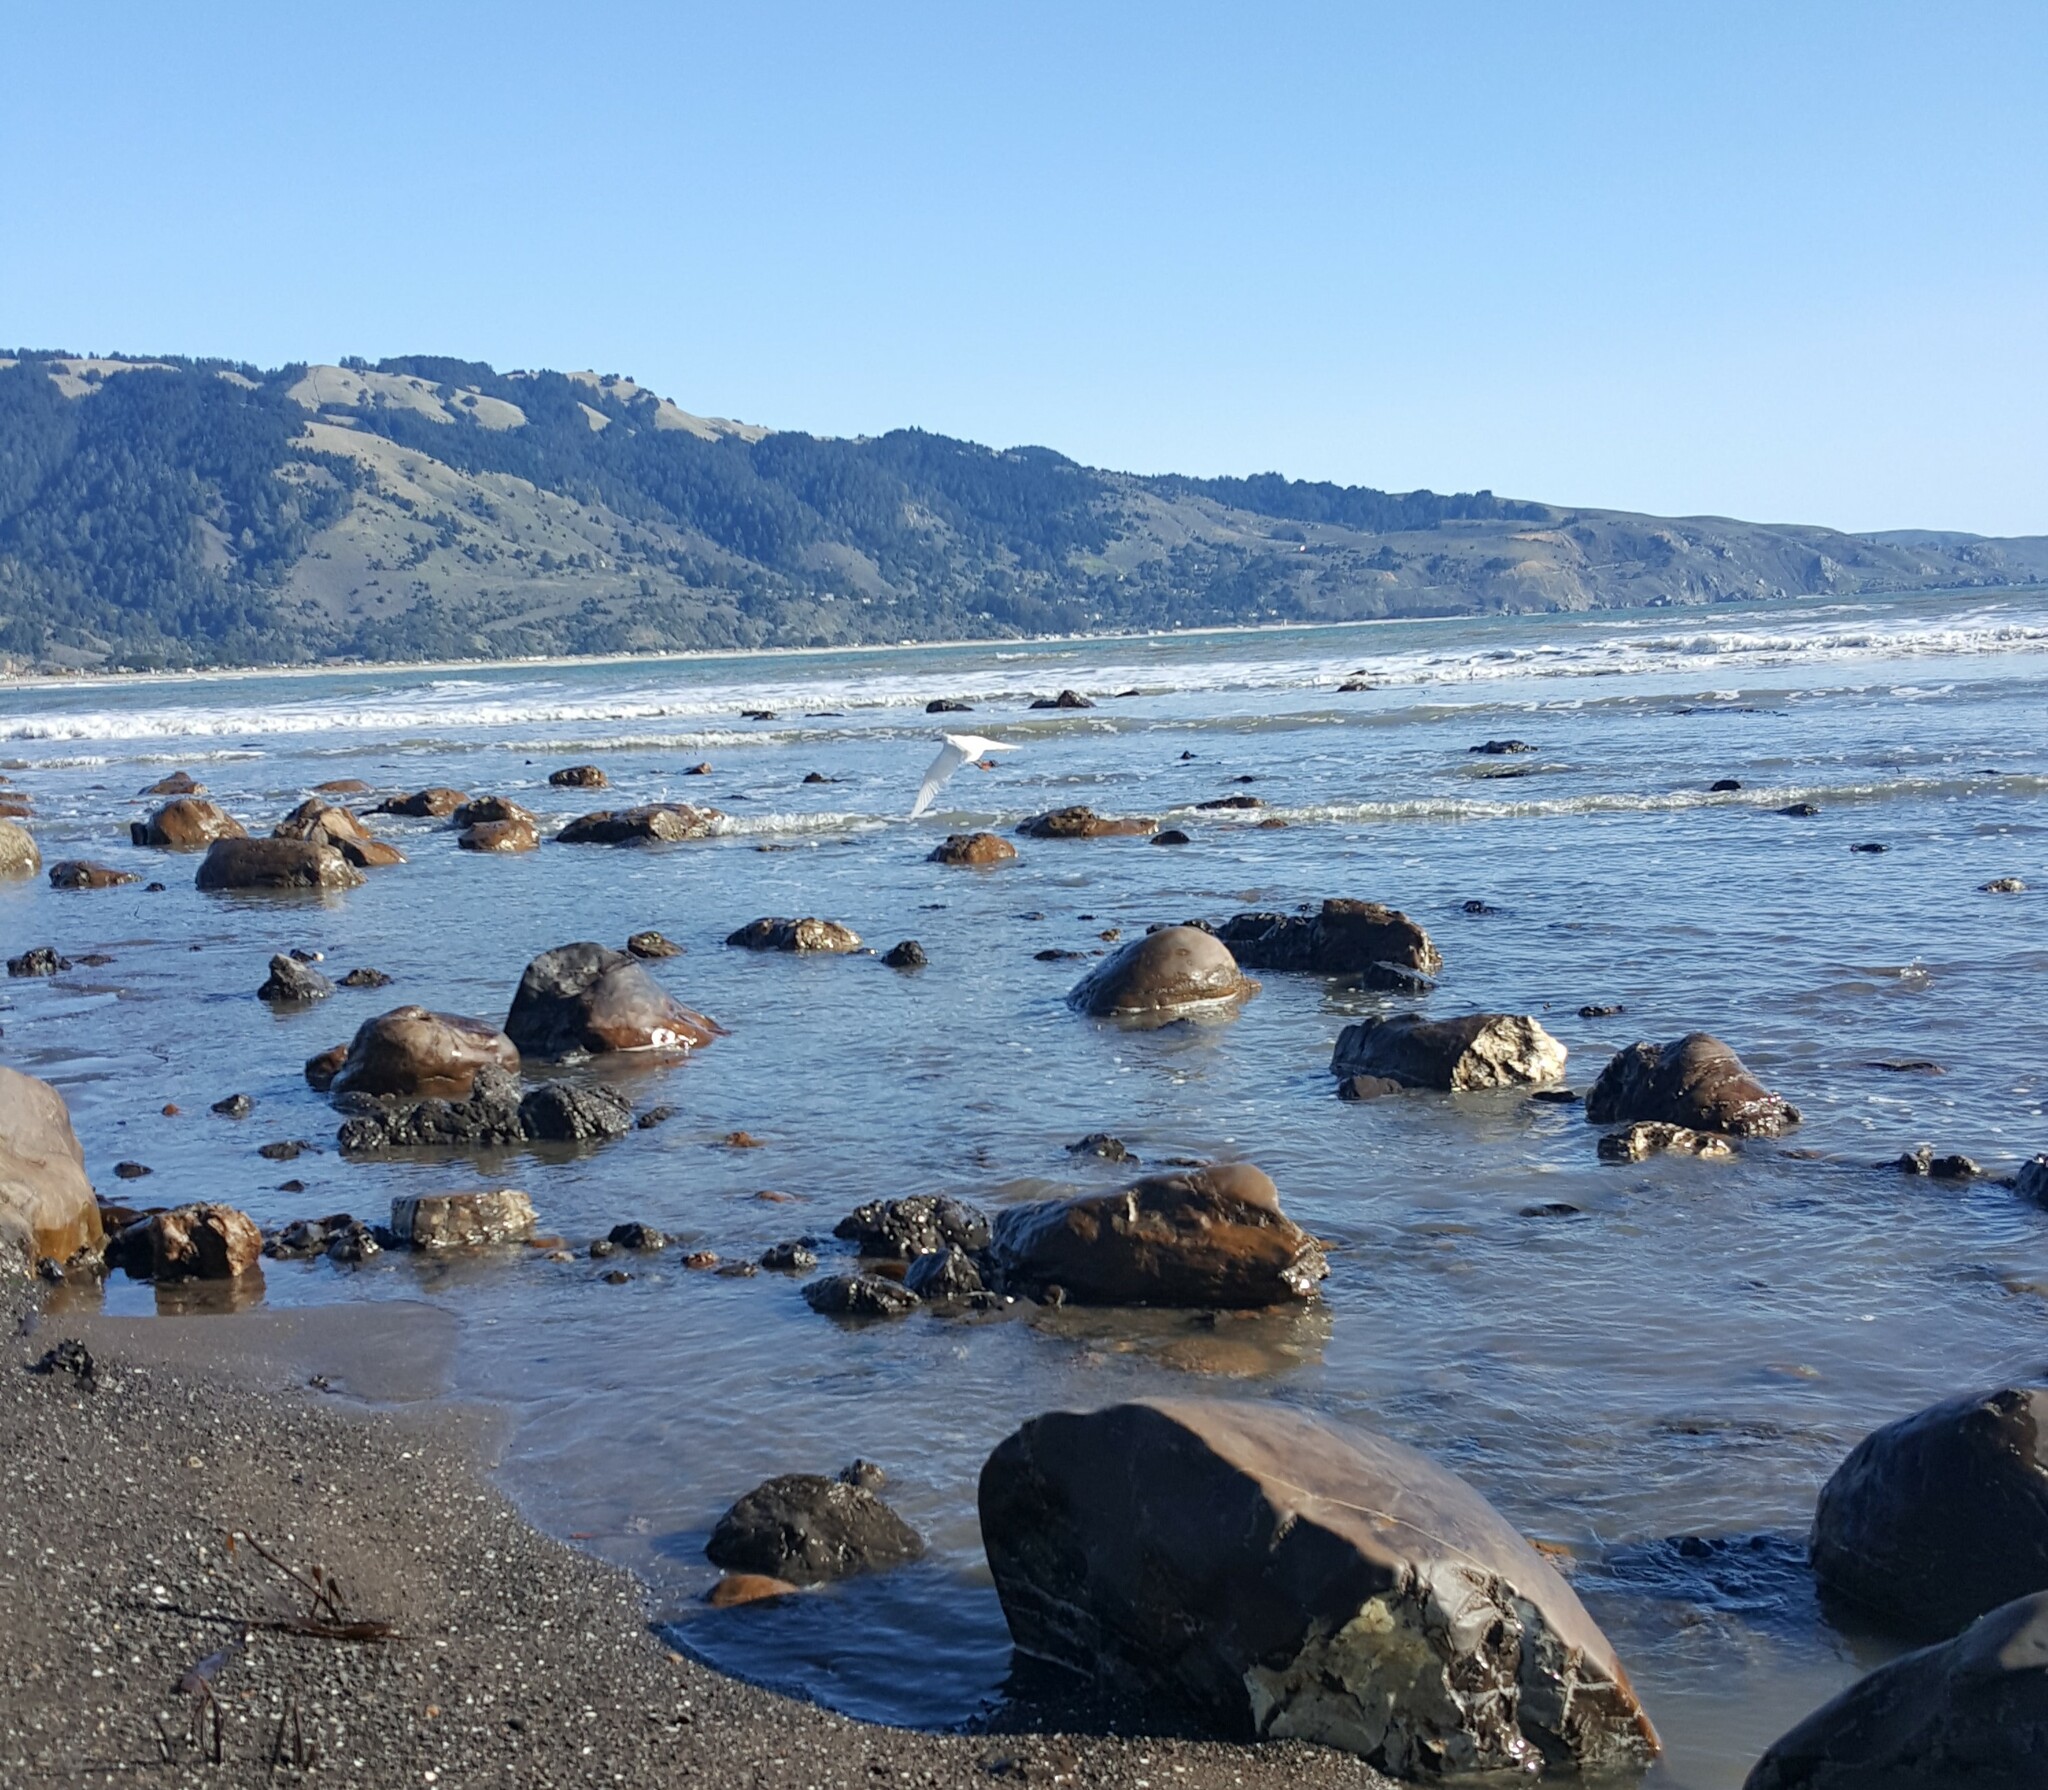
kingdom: Animalia
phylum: Chordata
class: Aves
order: Pelecaniformes
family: Ardeidae
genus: Egretta
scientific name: Egretta thula
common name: Snowy egret
